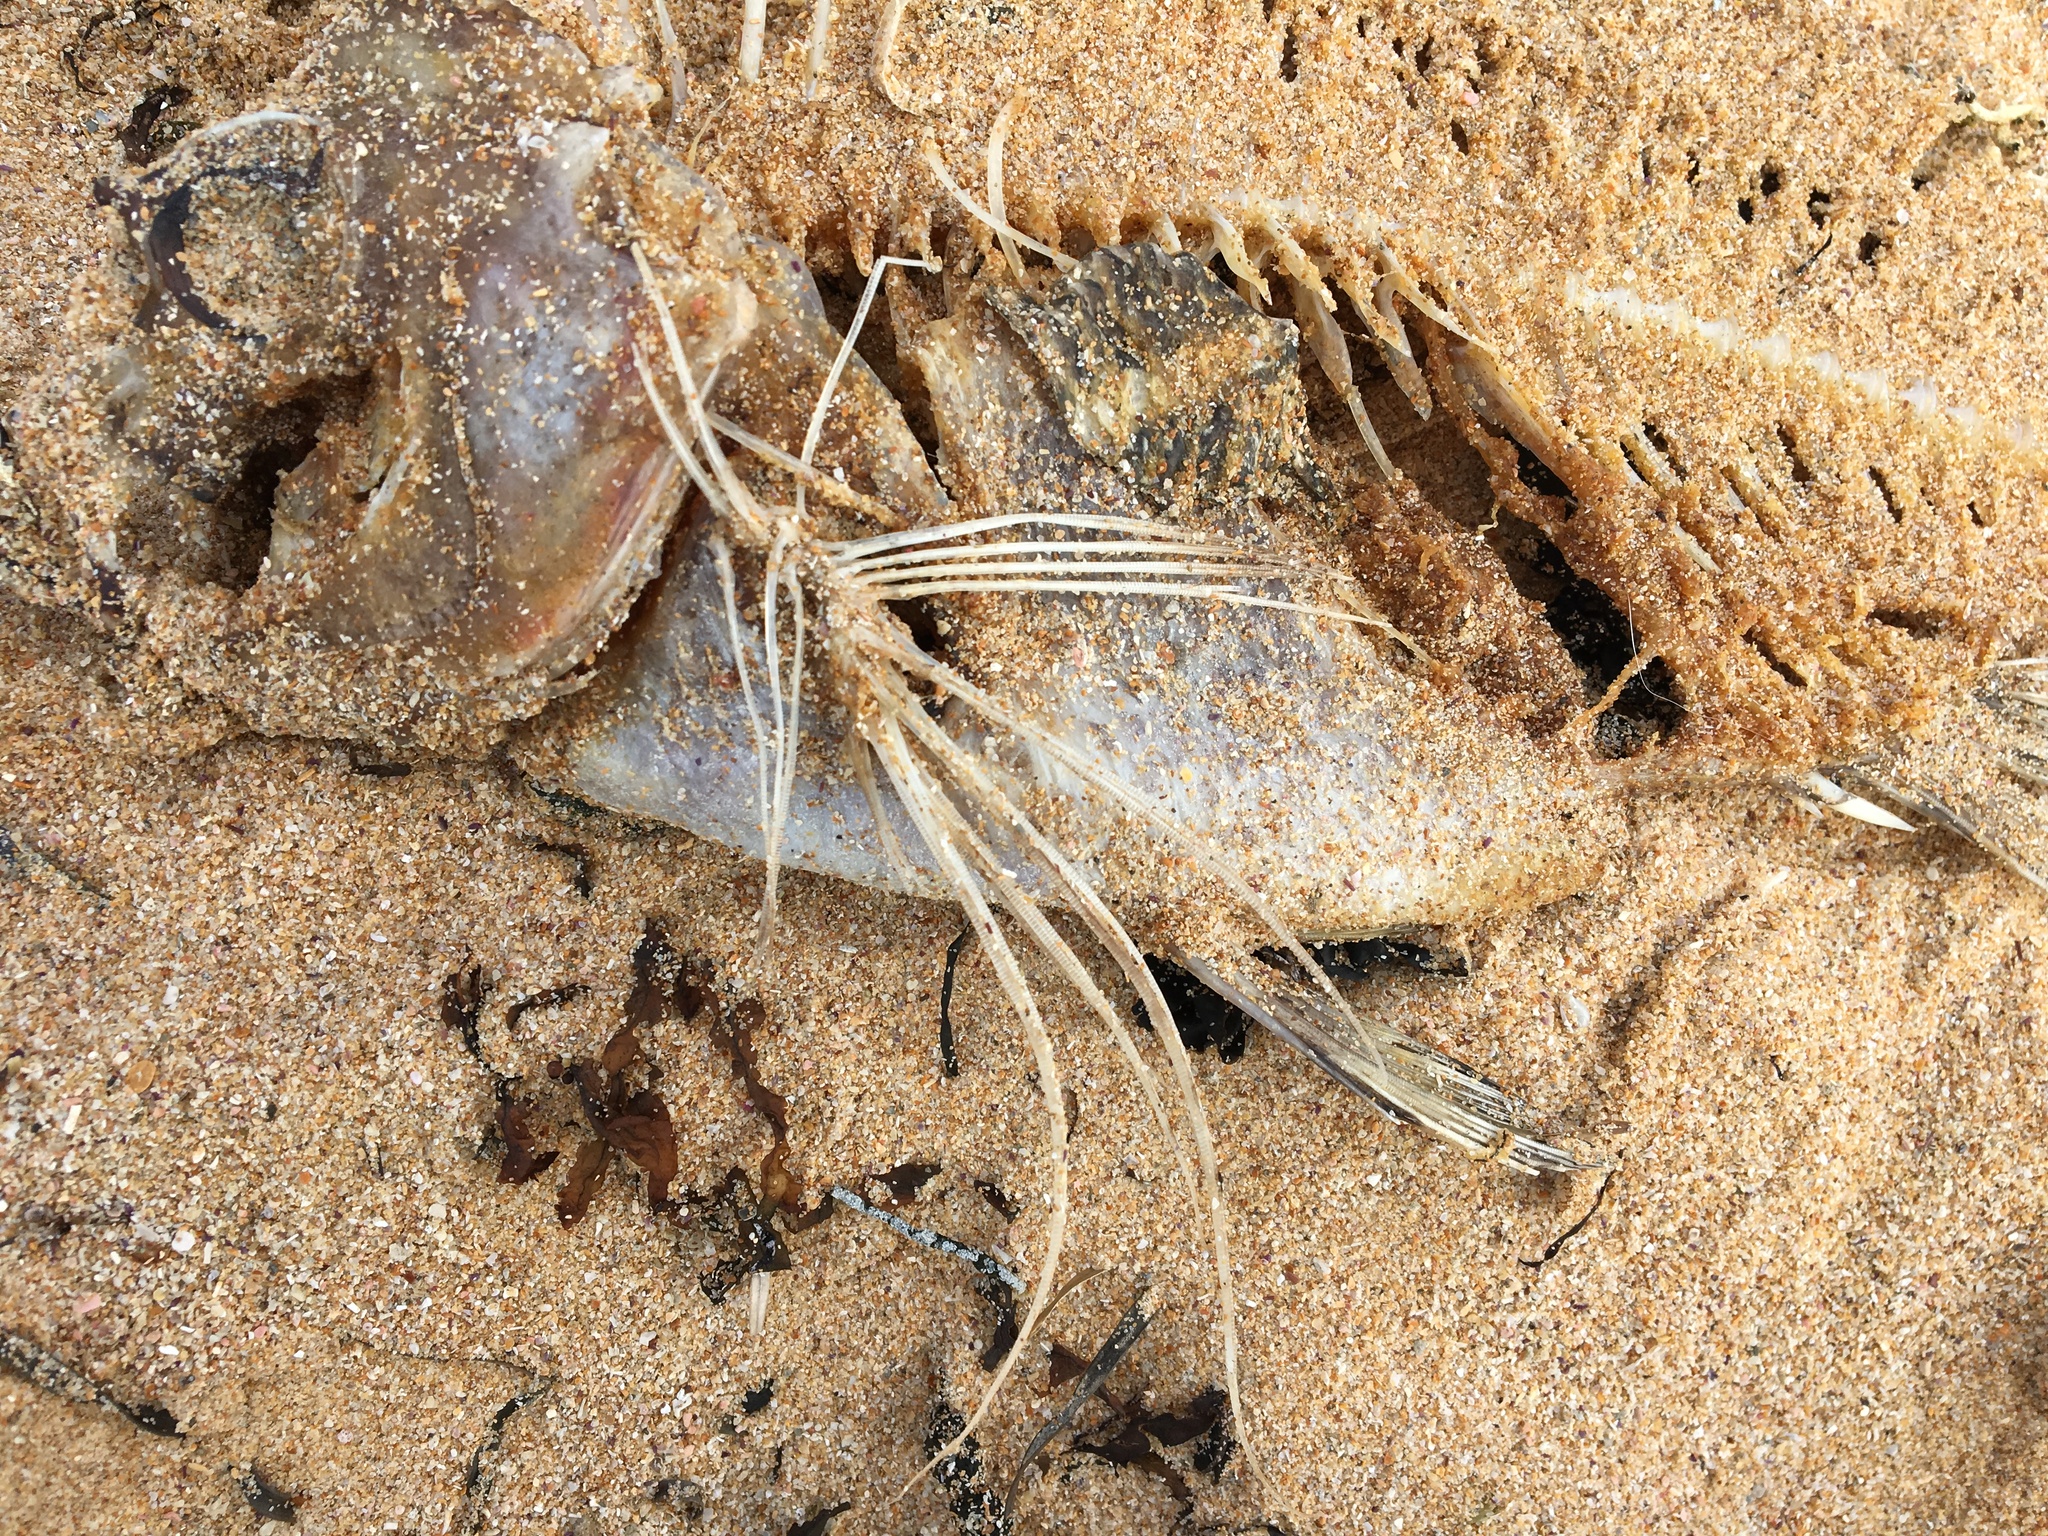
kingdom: Animalia
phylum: Chordata
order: Perciformes
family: Latridae
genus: Morwong
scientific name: Morwong fuscus
